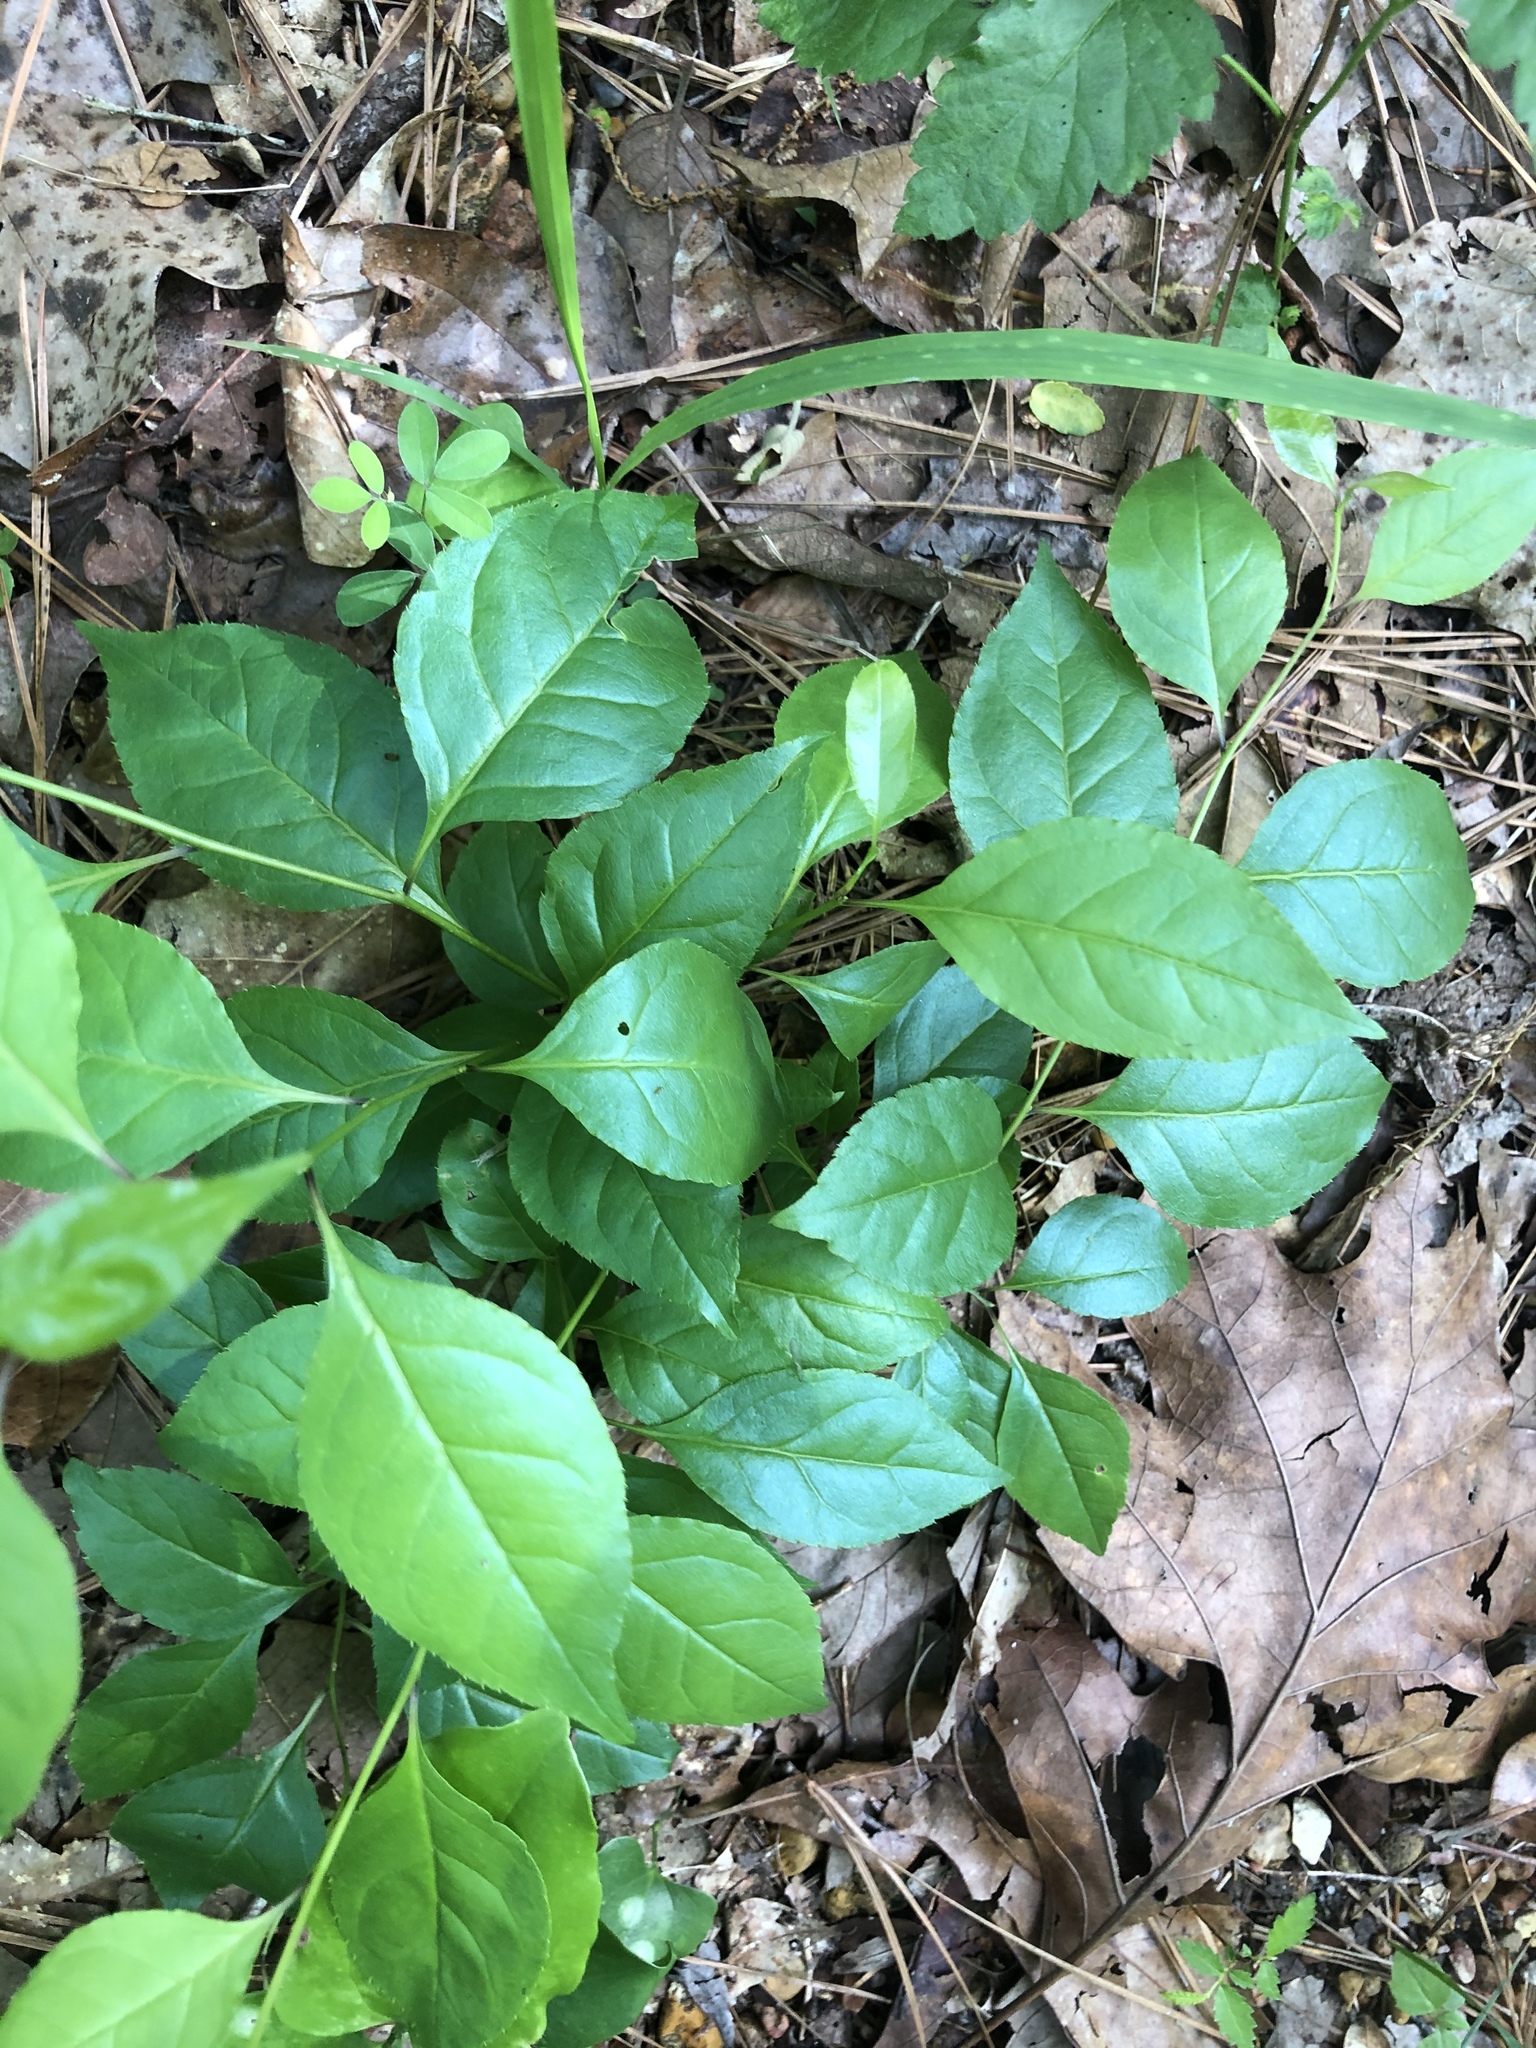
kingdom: Plantae
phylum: Tracheophyta
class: Magnoliopsida
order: Aquifoliales
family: Aquifoliaceae
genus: Ilex
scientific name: Ilex ambigua
